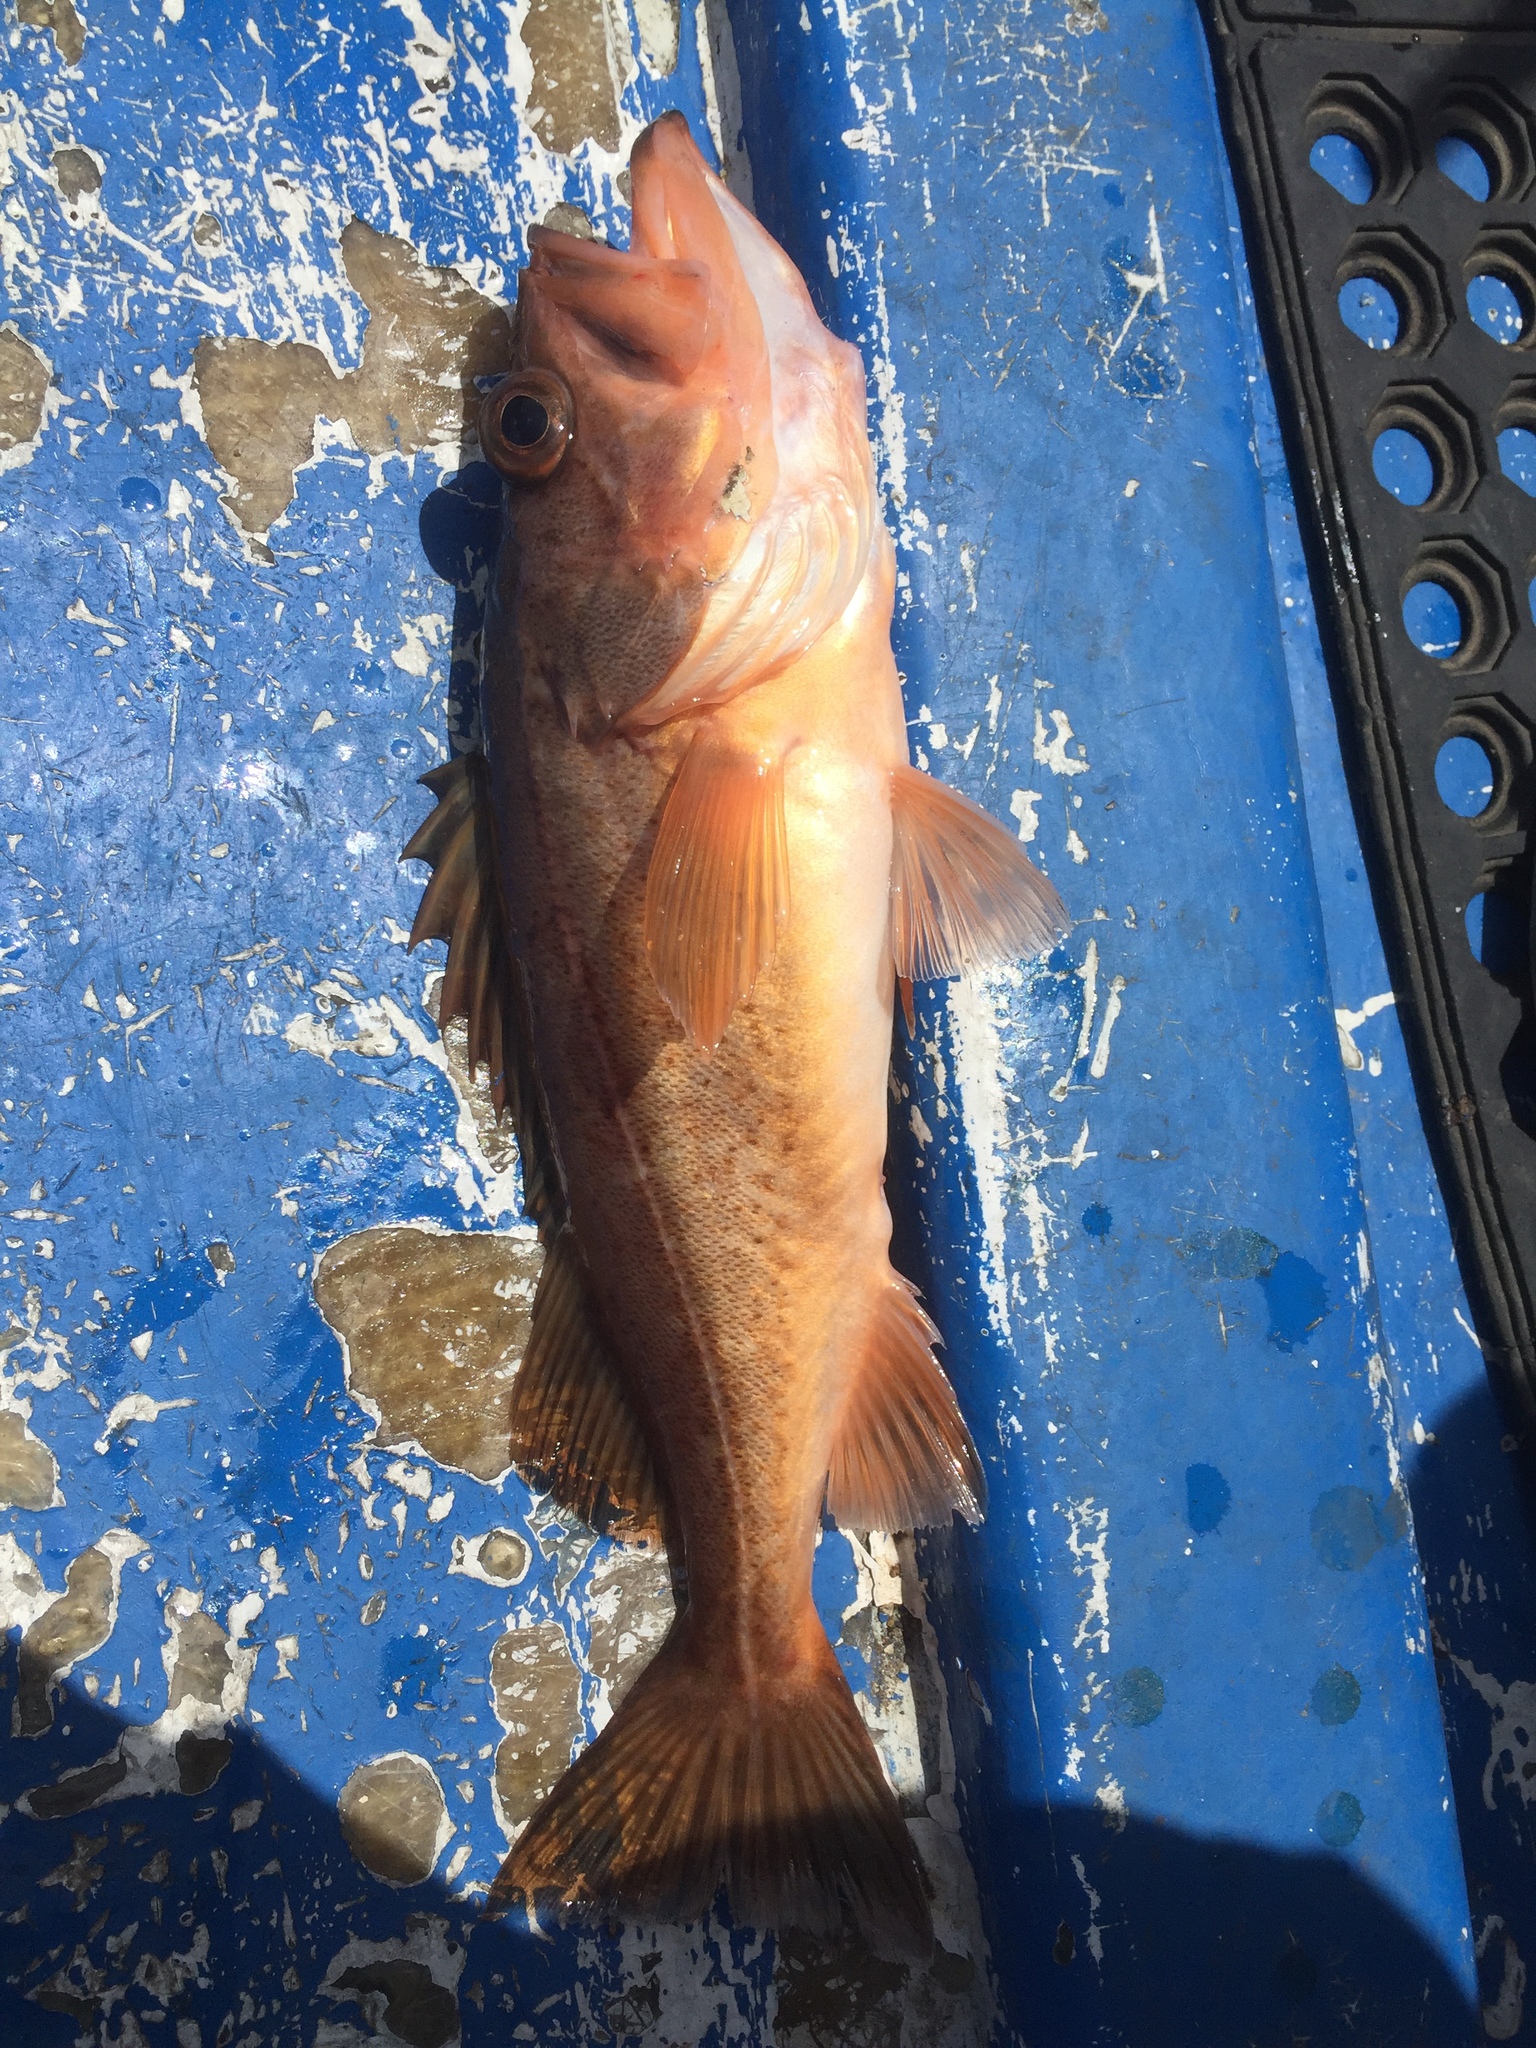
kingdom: Animalia
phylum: Chordata
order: Scorpaeniformes
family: Sebastidae
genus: Sebastes
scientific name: Sebastes paucispinis
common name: Bocaccio
